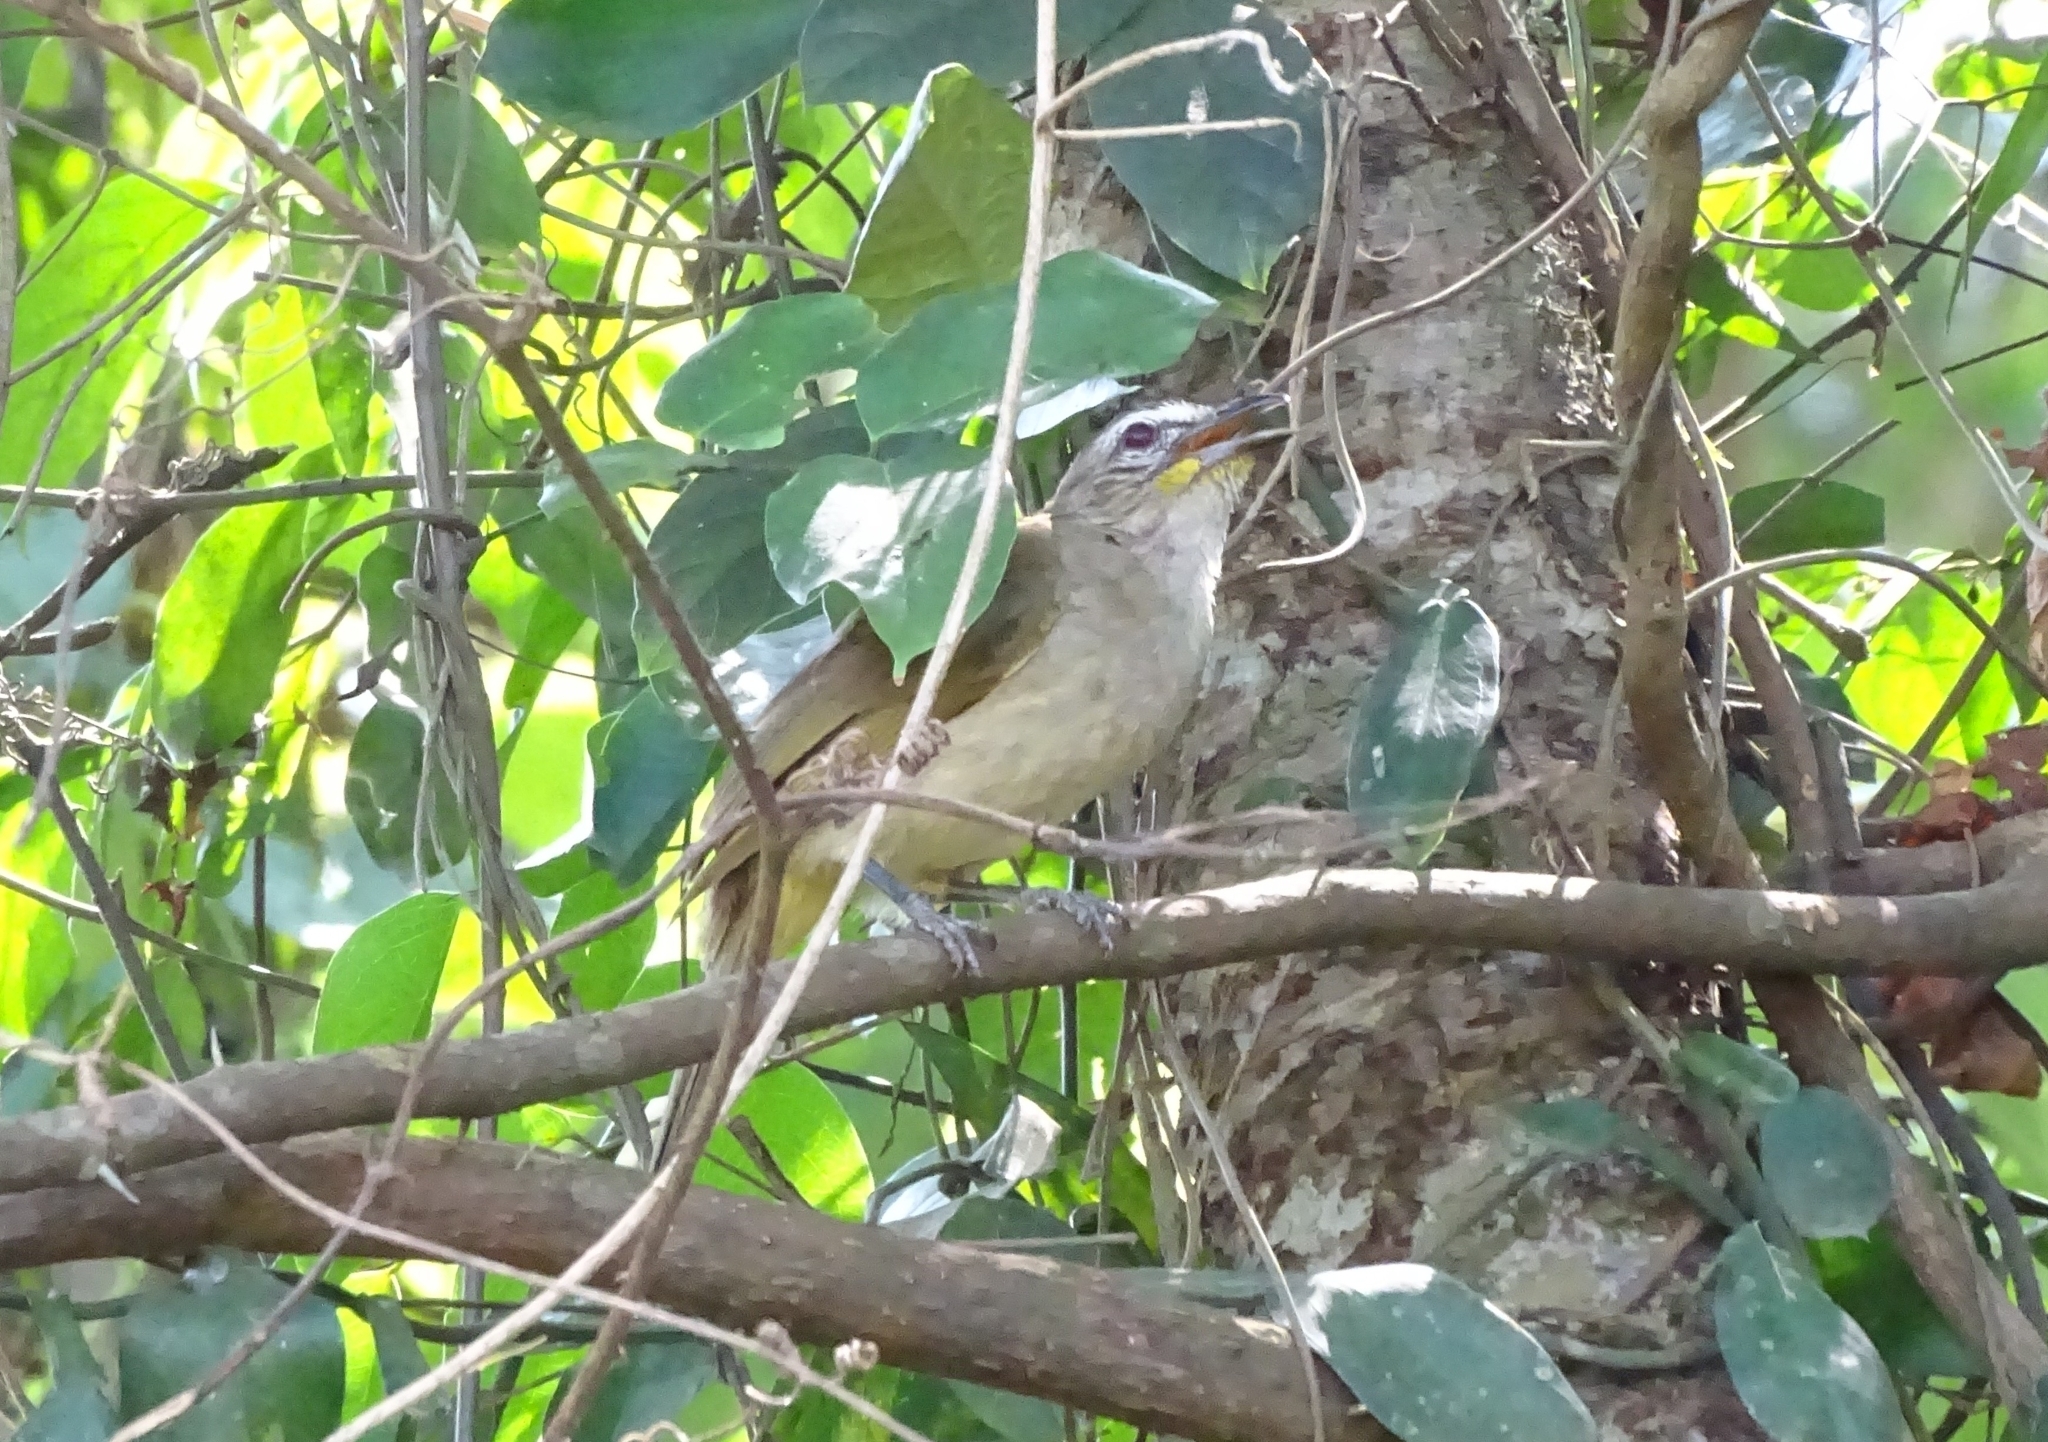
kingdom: Animalia
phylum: Chordata
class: Aves
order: Passeriformes
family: Pycnonotidae
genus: Pycnonotus
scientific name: Pycnonotus luteolus
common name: White-browed bulbul
